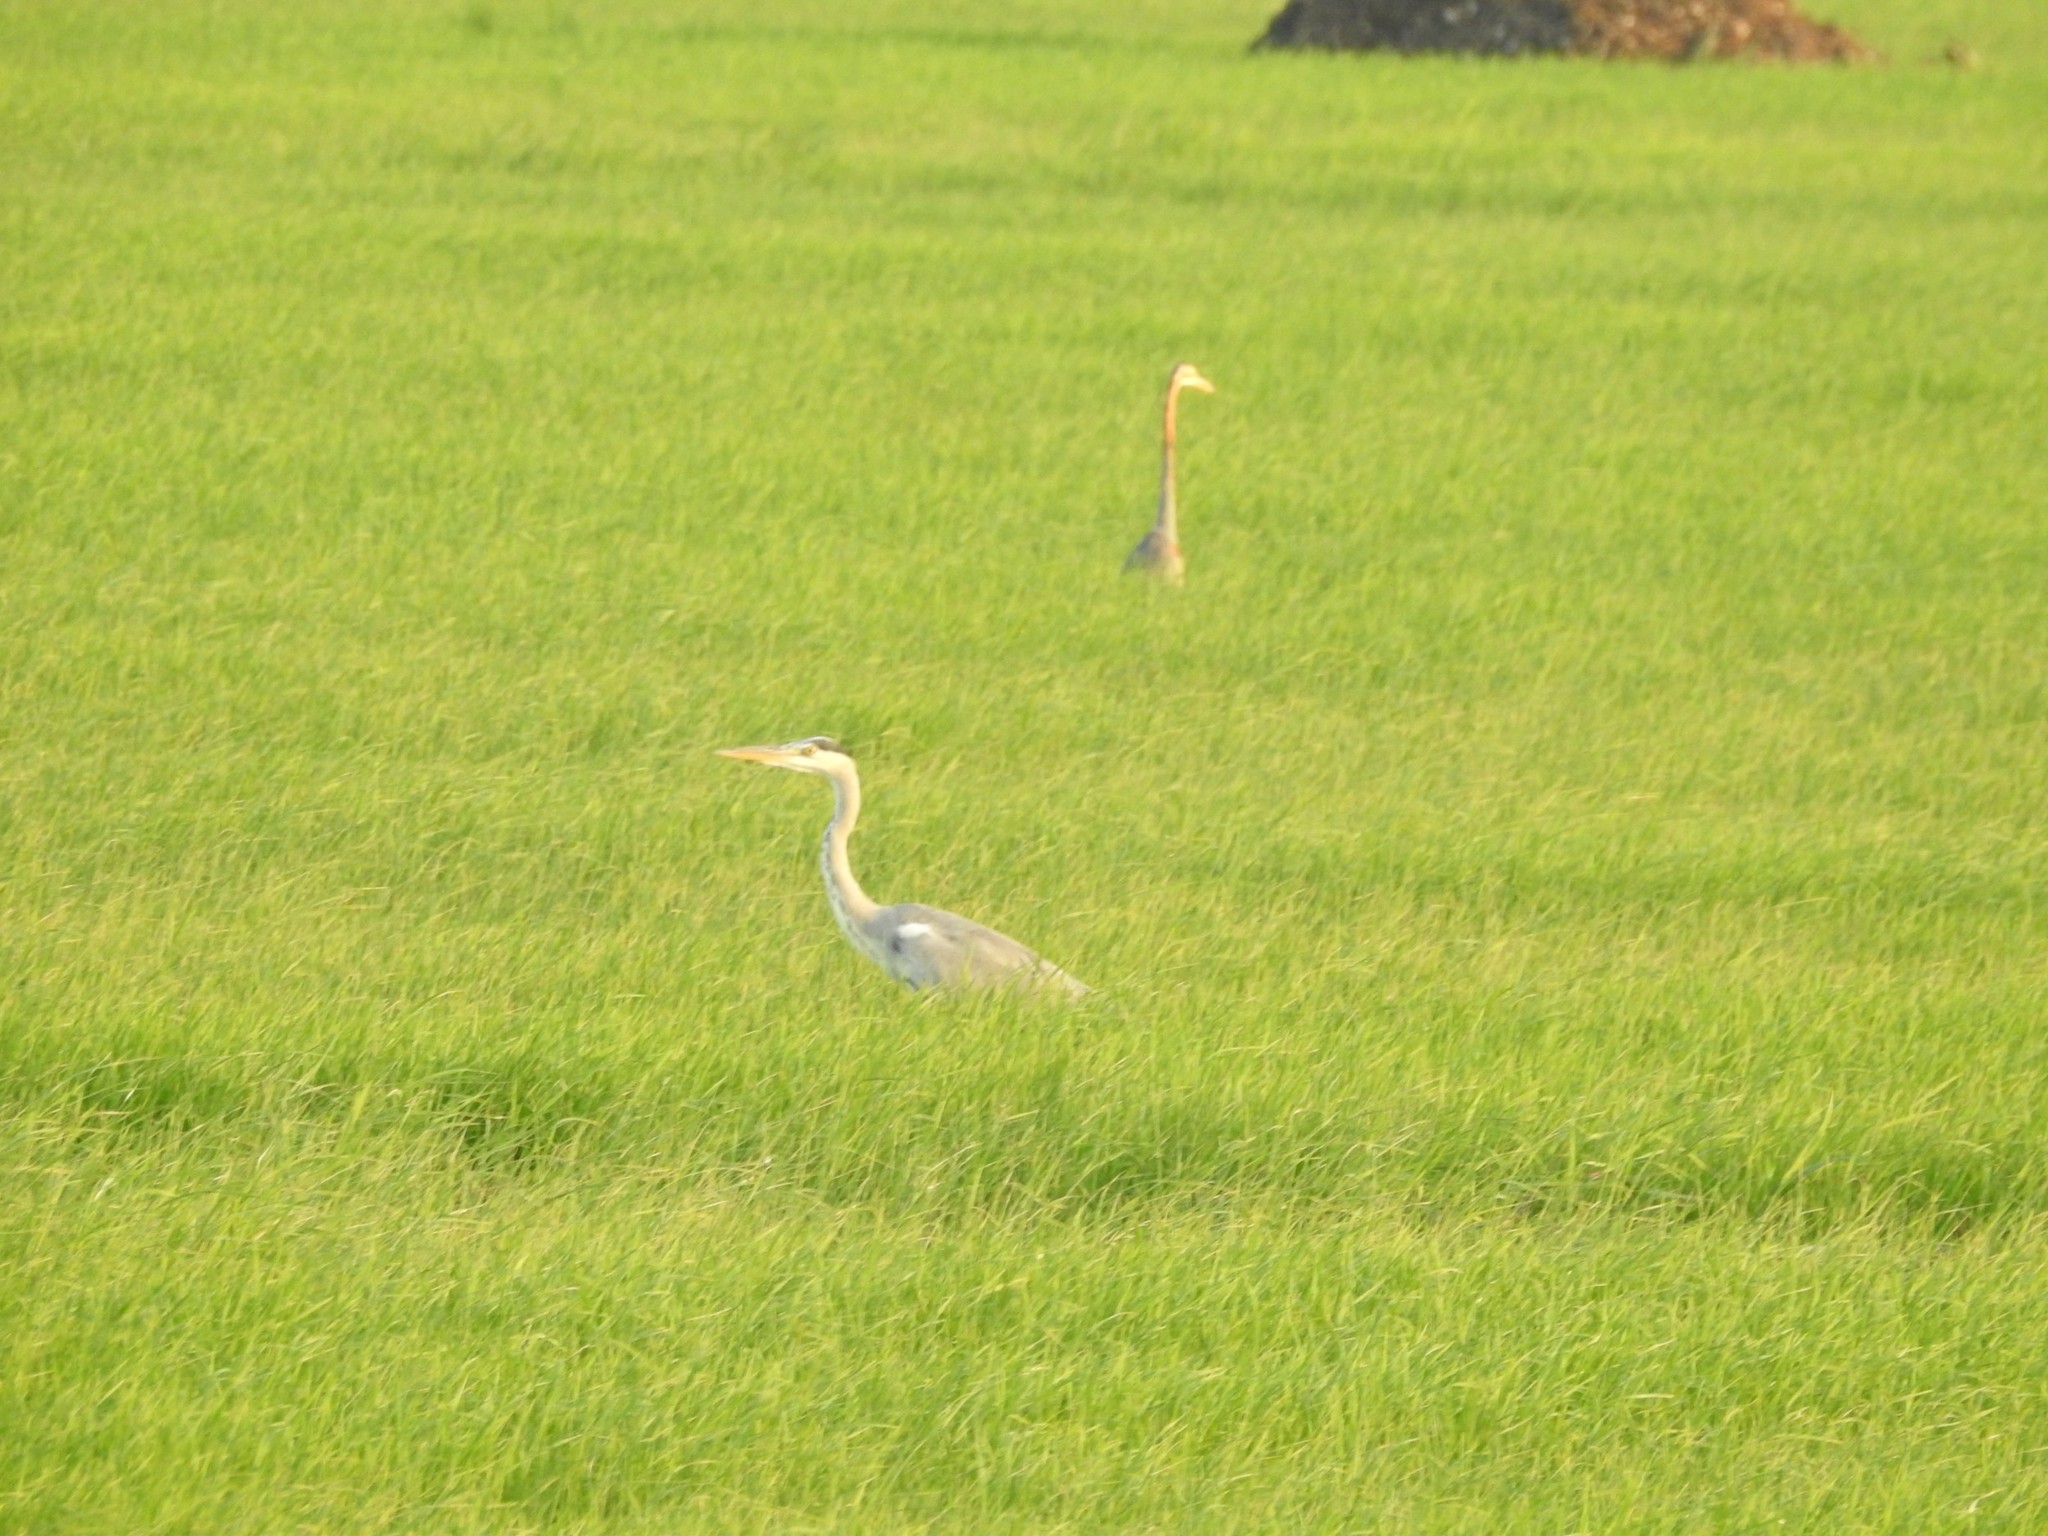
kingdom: Animalia
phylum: Chordata
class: Aves
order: Pelecaniformes
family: Ardeidae
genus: Ardea
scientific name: Ardea cinerea
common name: Grey heron
